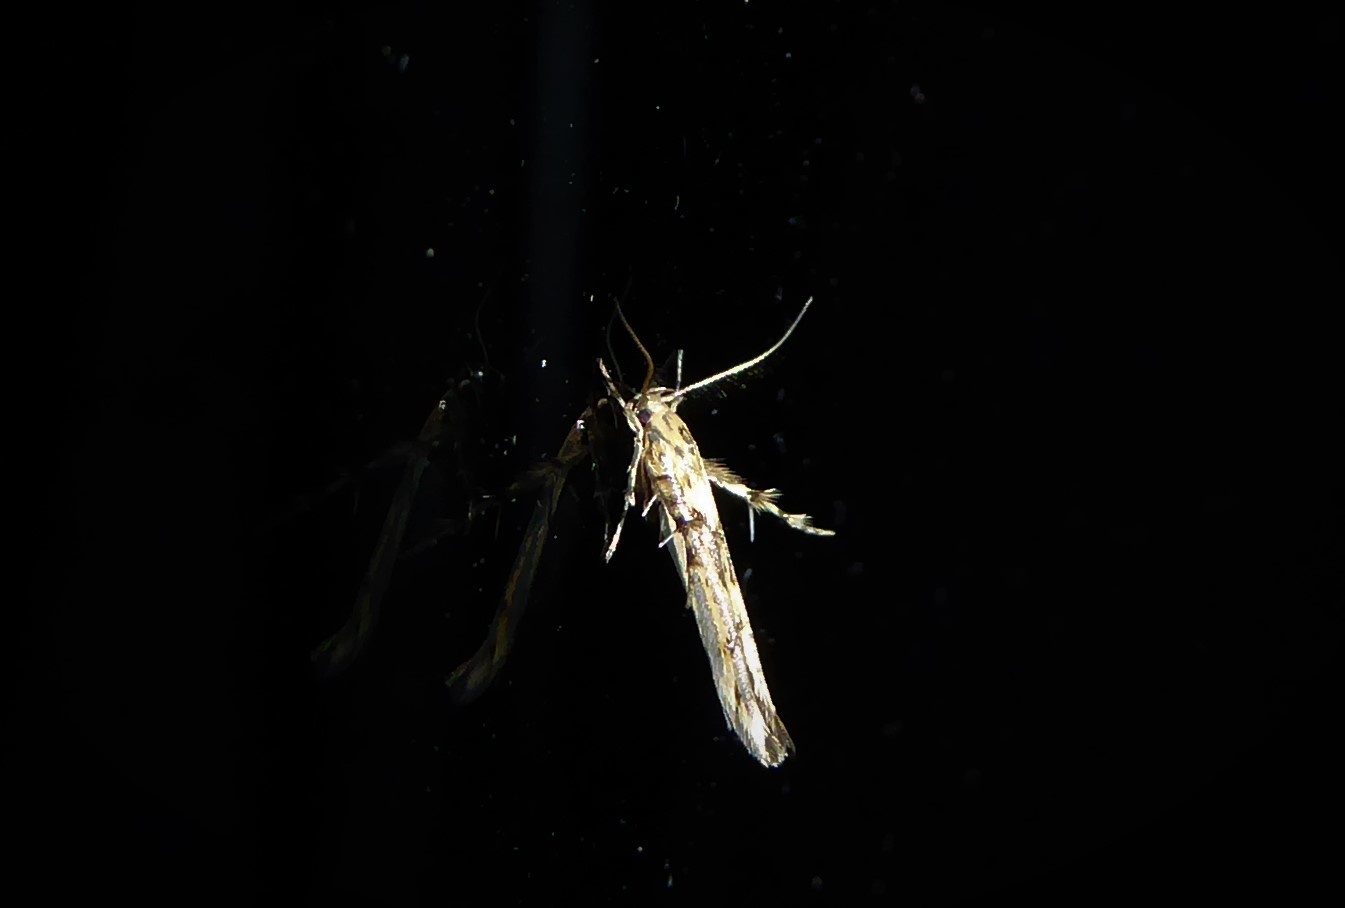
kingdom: Animalia
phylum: Arthropoda
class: Insecta
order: Lepidoptera
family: Stathmopodidae
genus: Stathmopoda
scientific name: Stathmopoda plumbiflua
